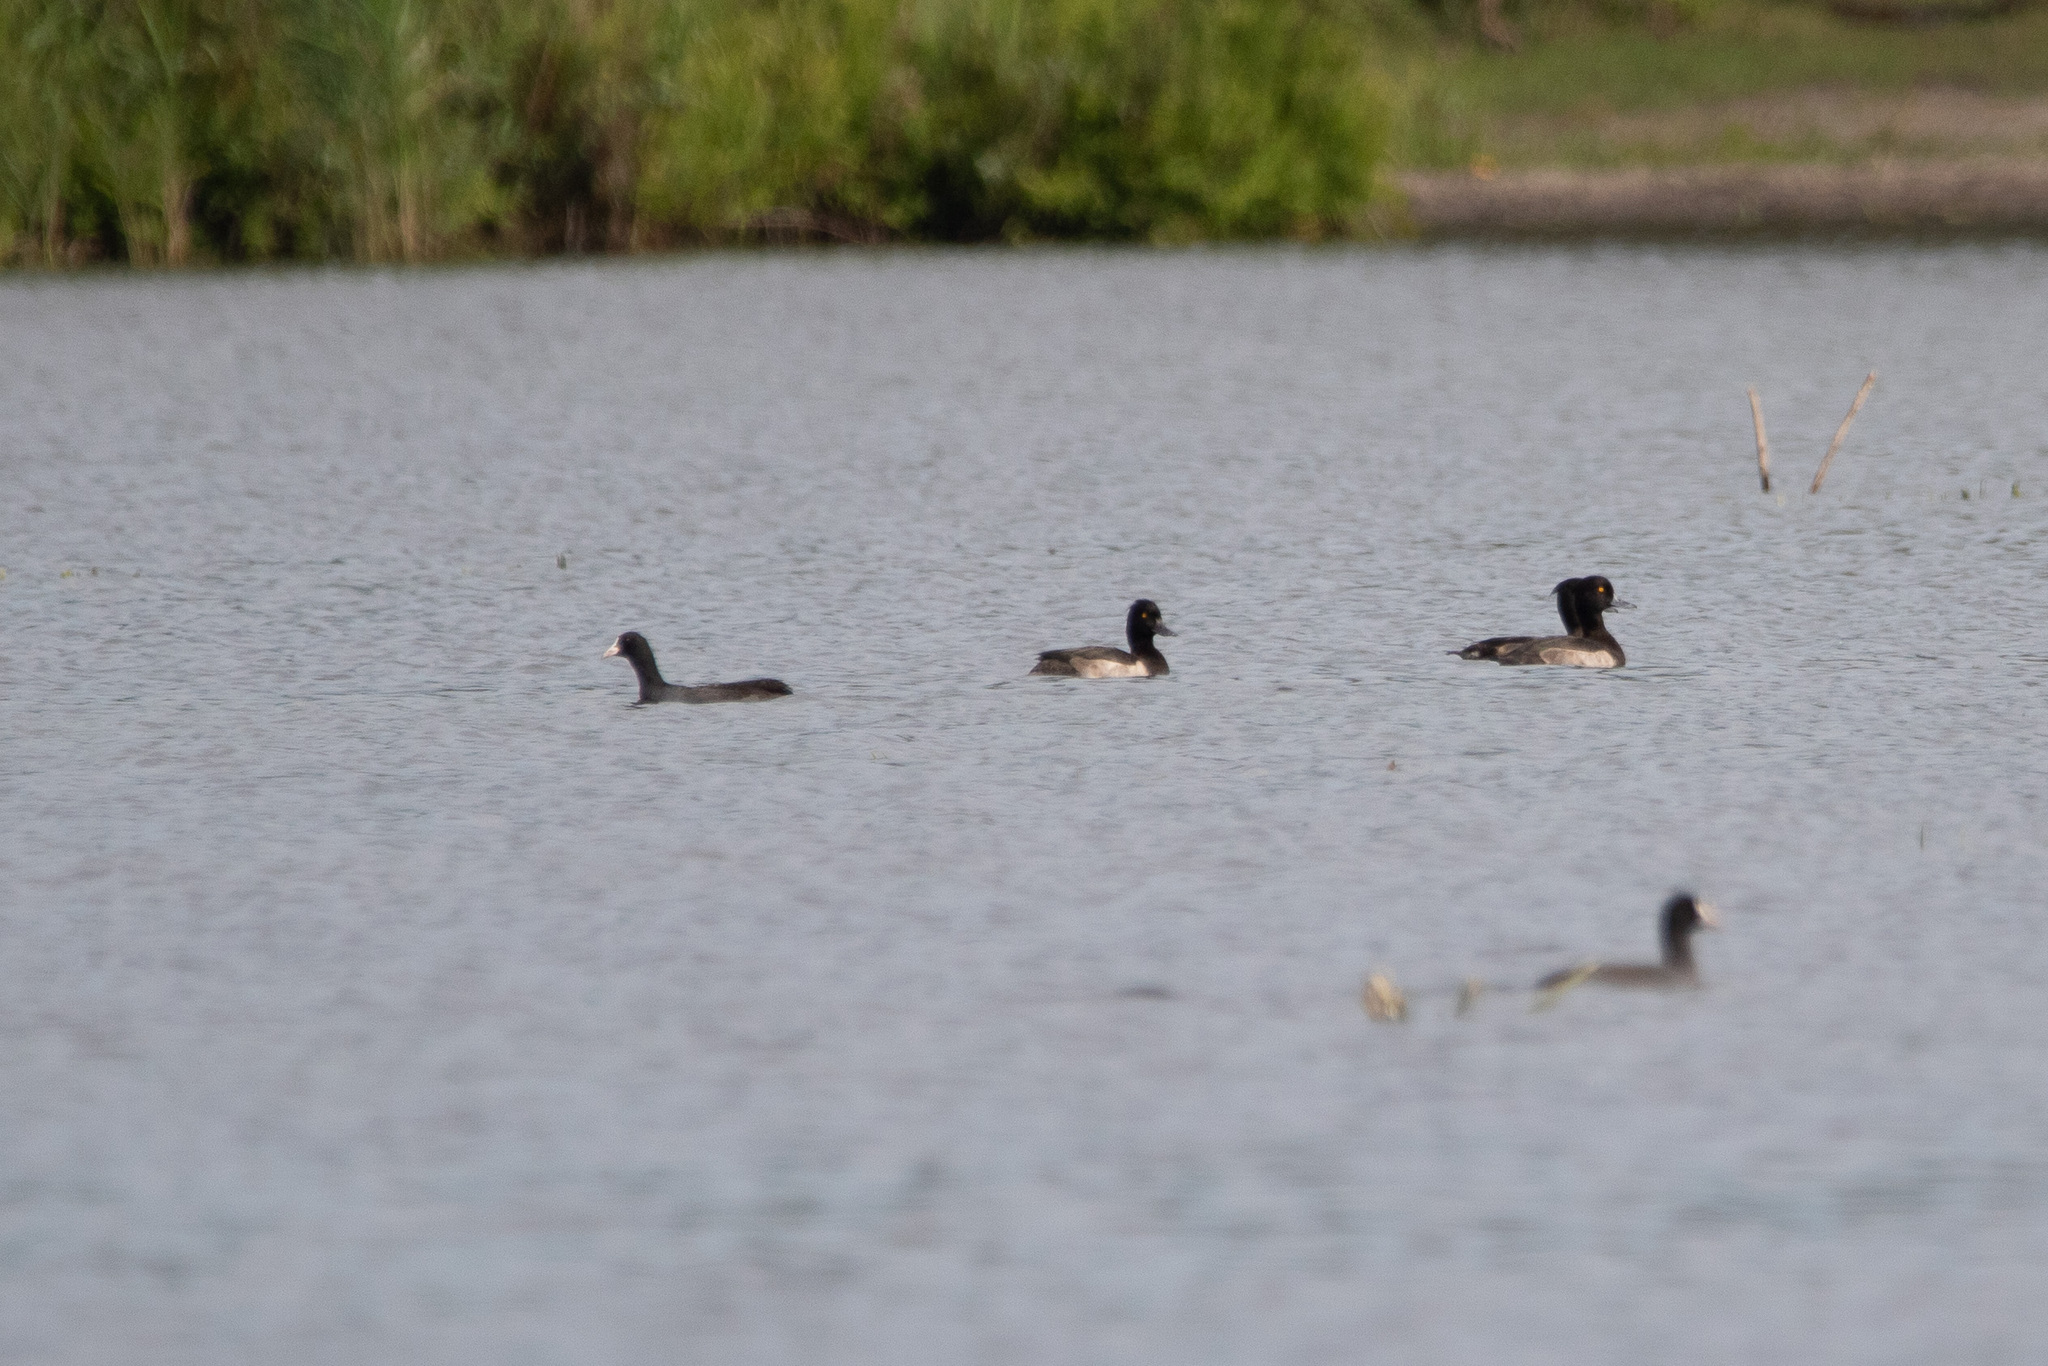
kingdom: Animalia
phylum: Chordata
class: Aves
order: Anseriformes
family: Anatidae
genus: Aythya
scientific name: Aythya fuligula
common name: Tufted duck
